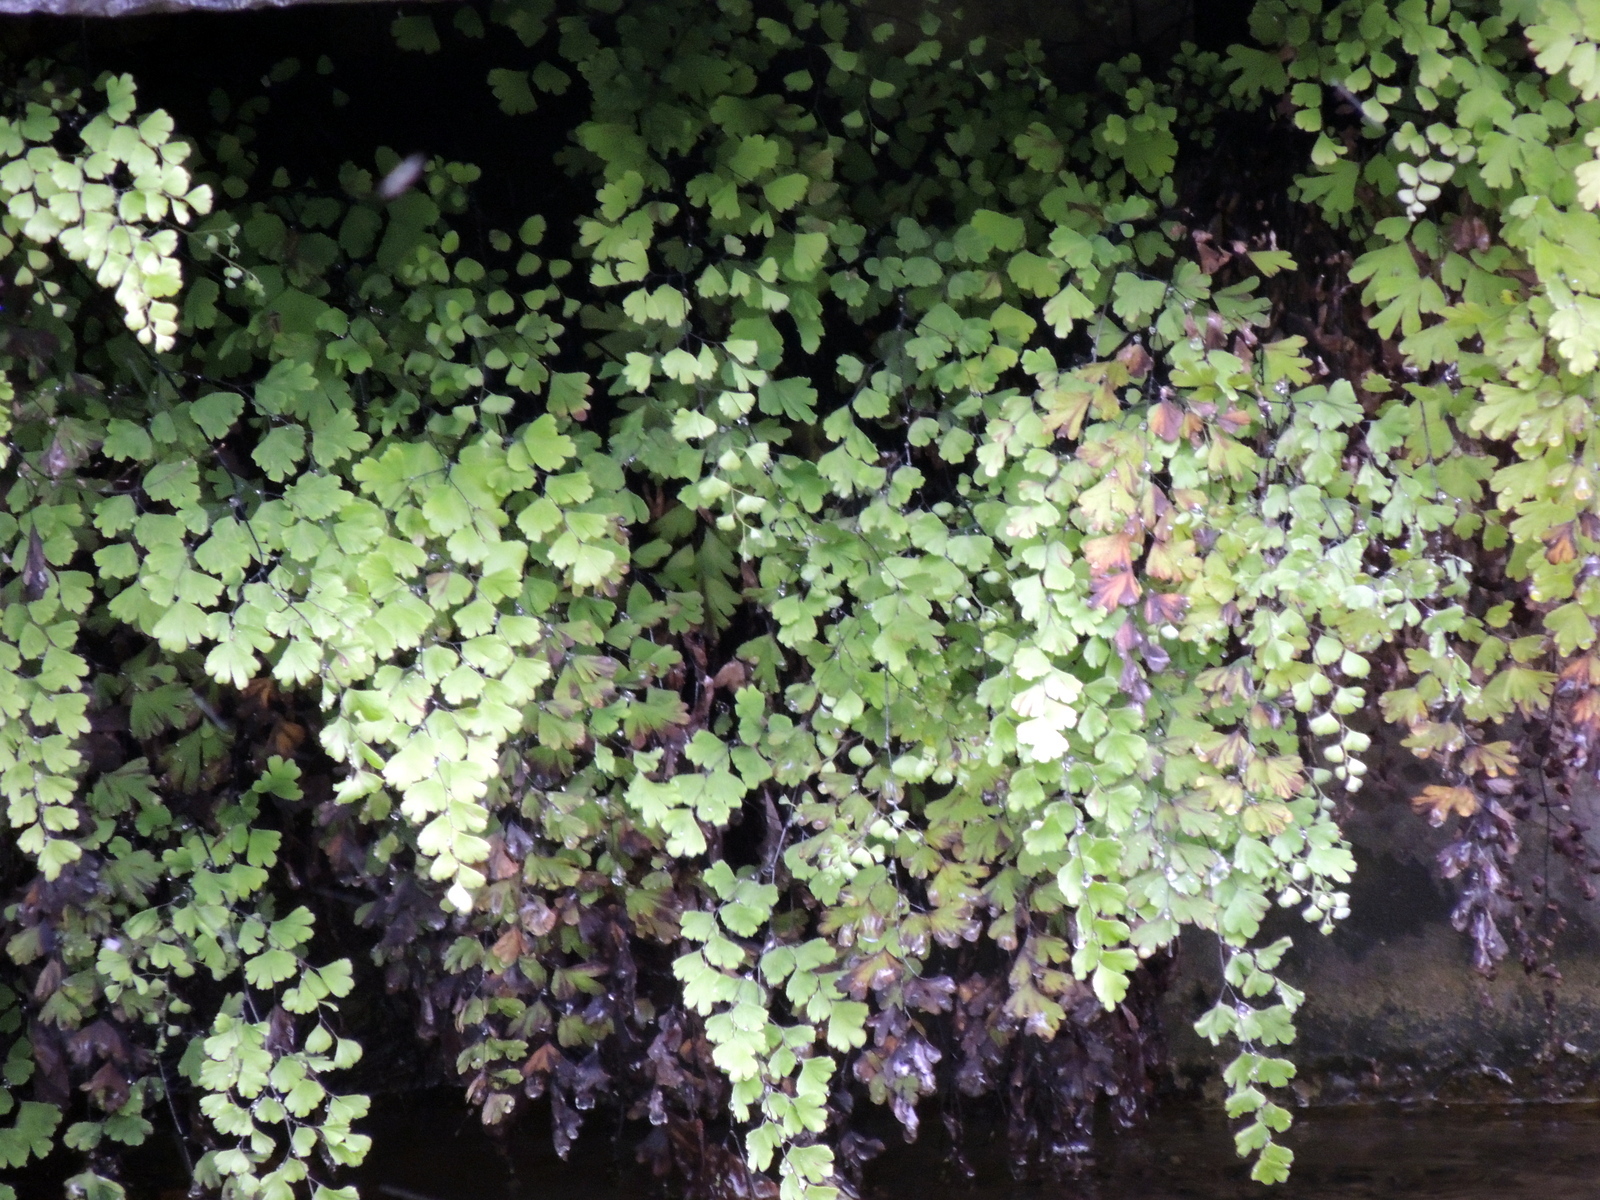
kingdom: Plantae
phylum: Tracheophyta
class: Polypodiopsida
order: Polypodiales
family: Pteridaceae
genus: Adiantum
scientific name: Adiantum capillus-veneris
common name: Maidenhair fern
